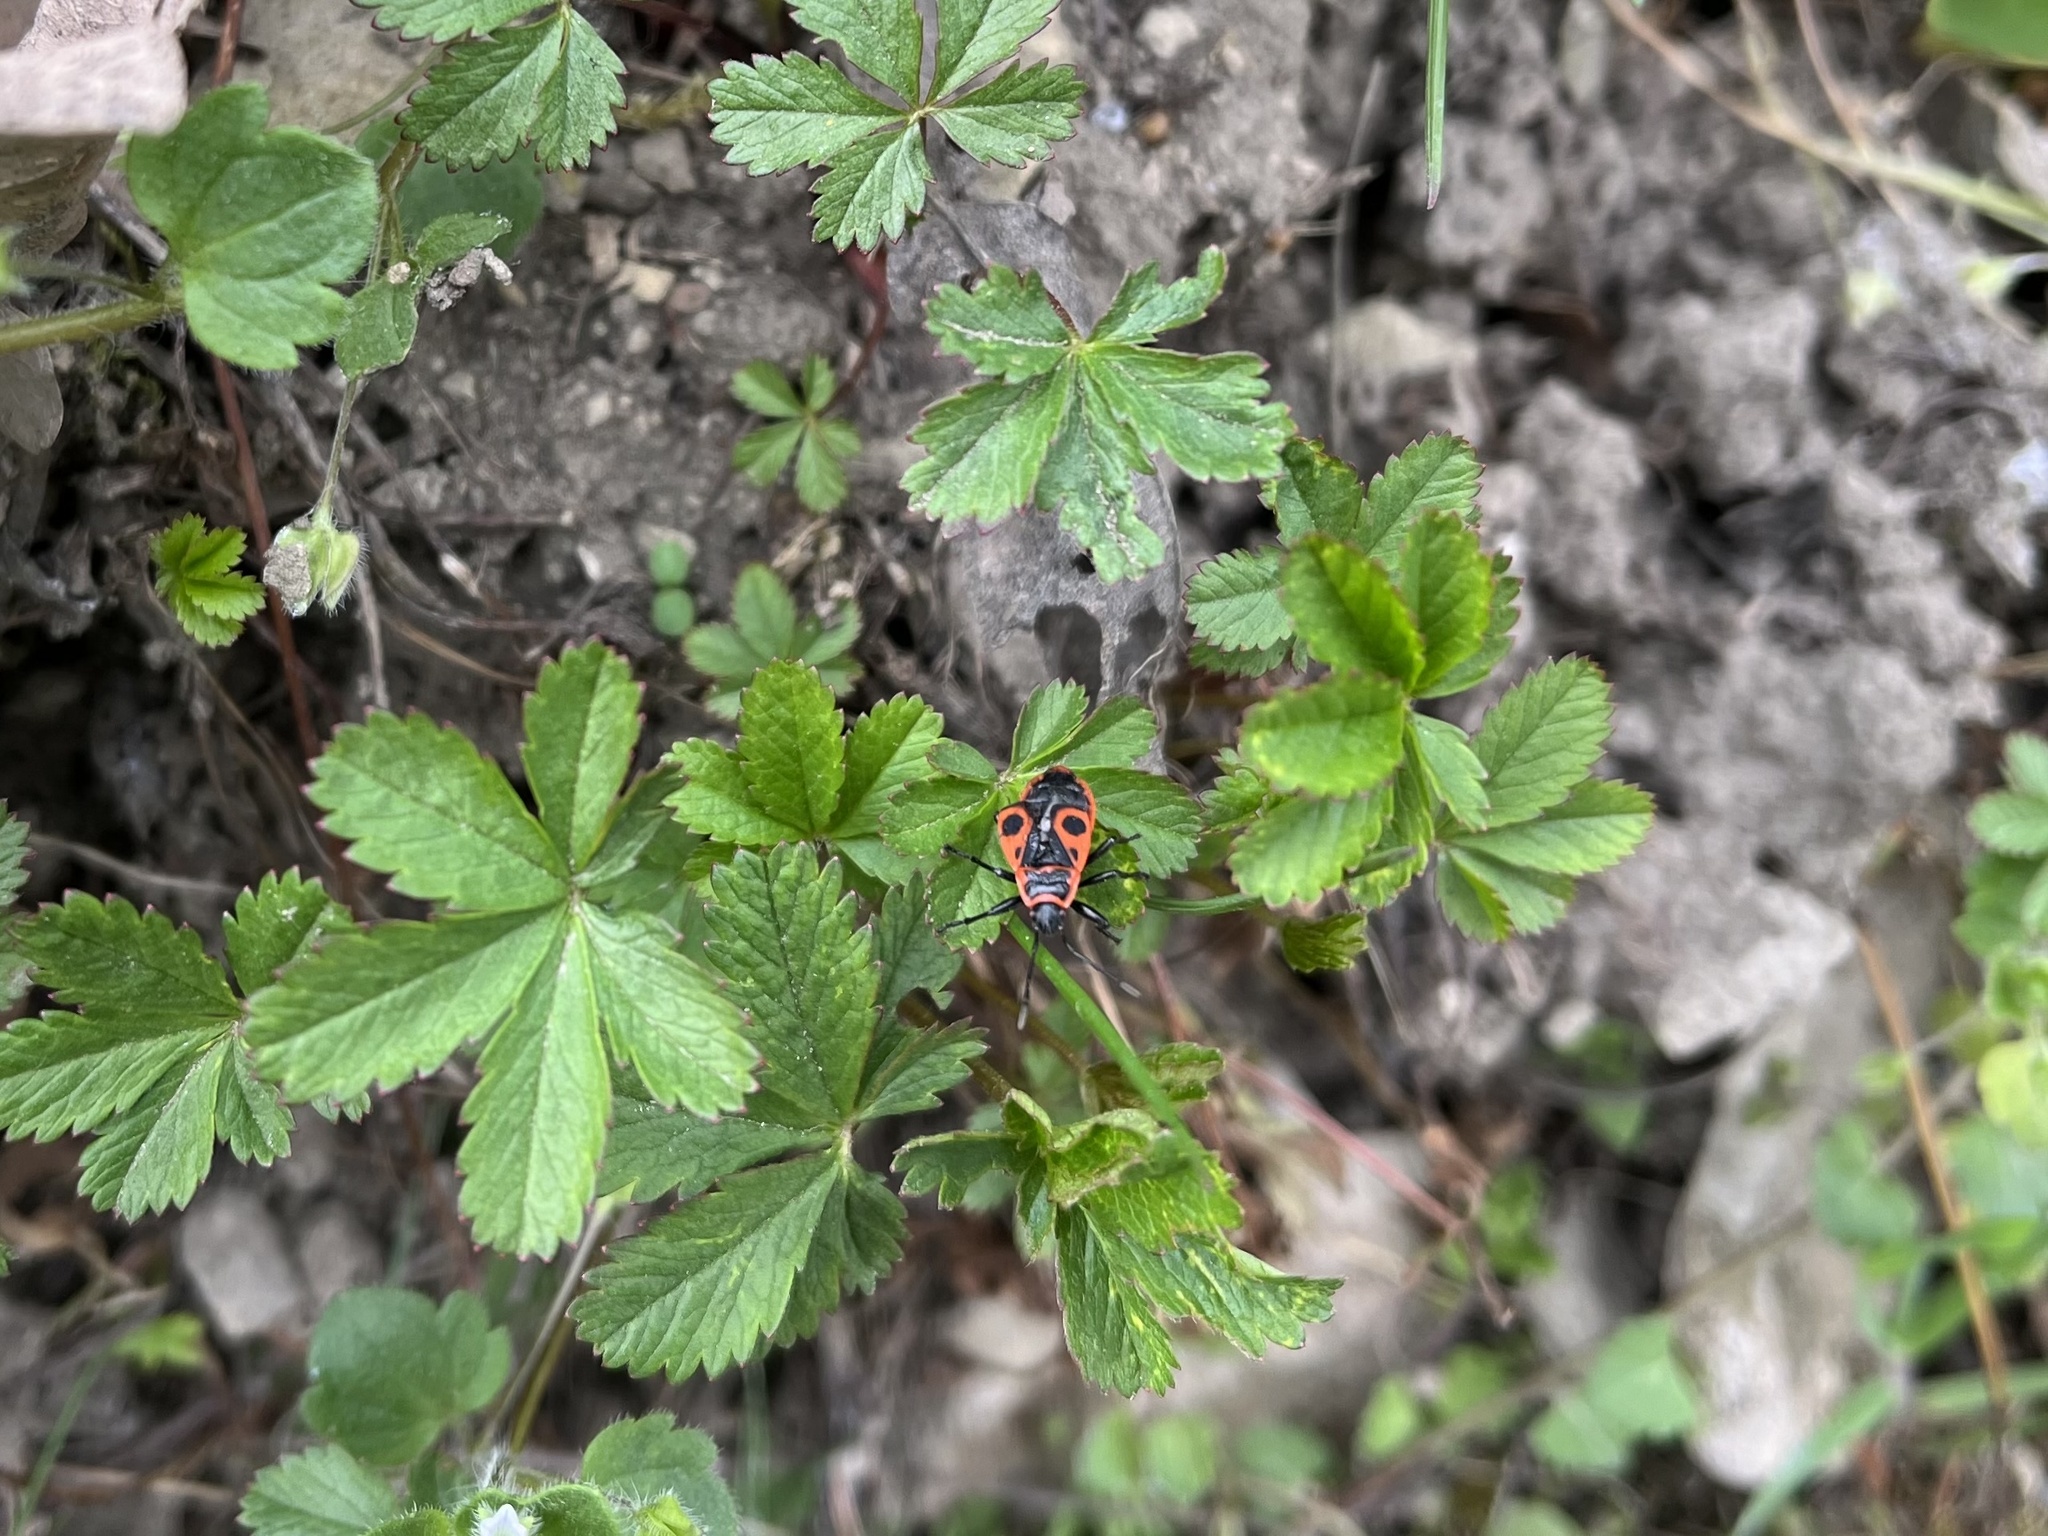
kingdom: Animalia
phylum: Arthropoda
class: Insecta
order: Hemiptera
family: Pyrrhocoridae
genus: Pyrrhocoris
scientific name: Pyrrhocoris apterus
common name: Firebug
